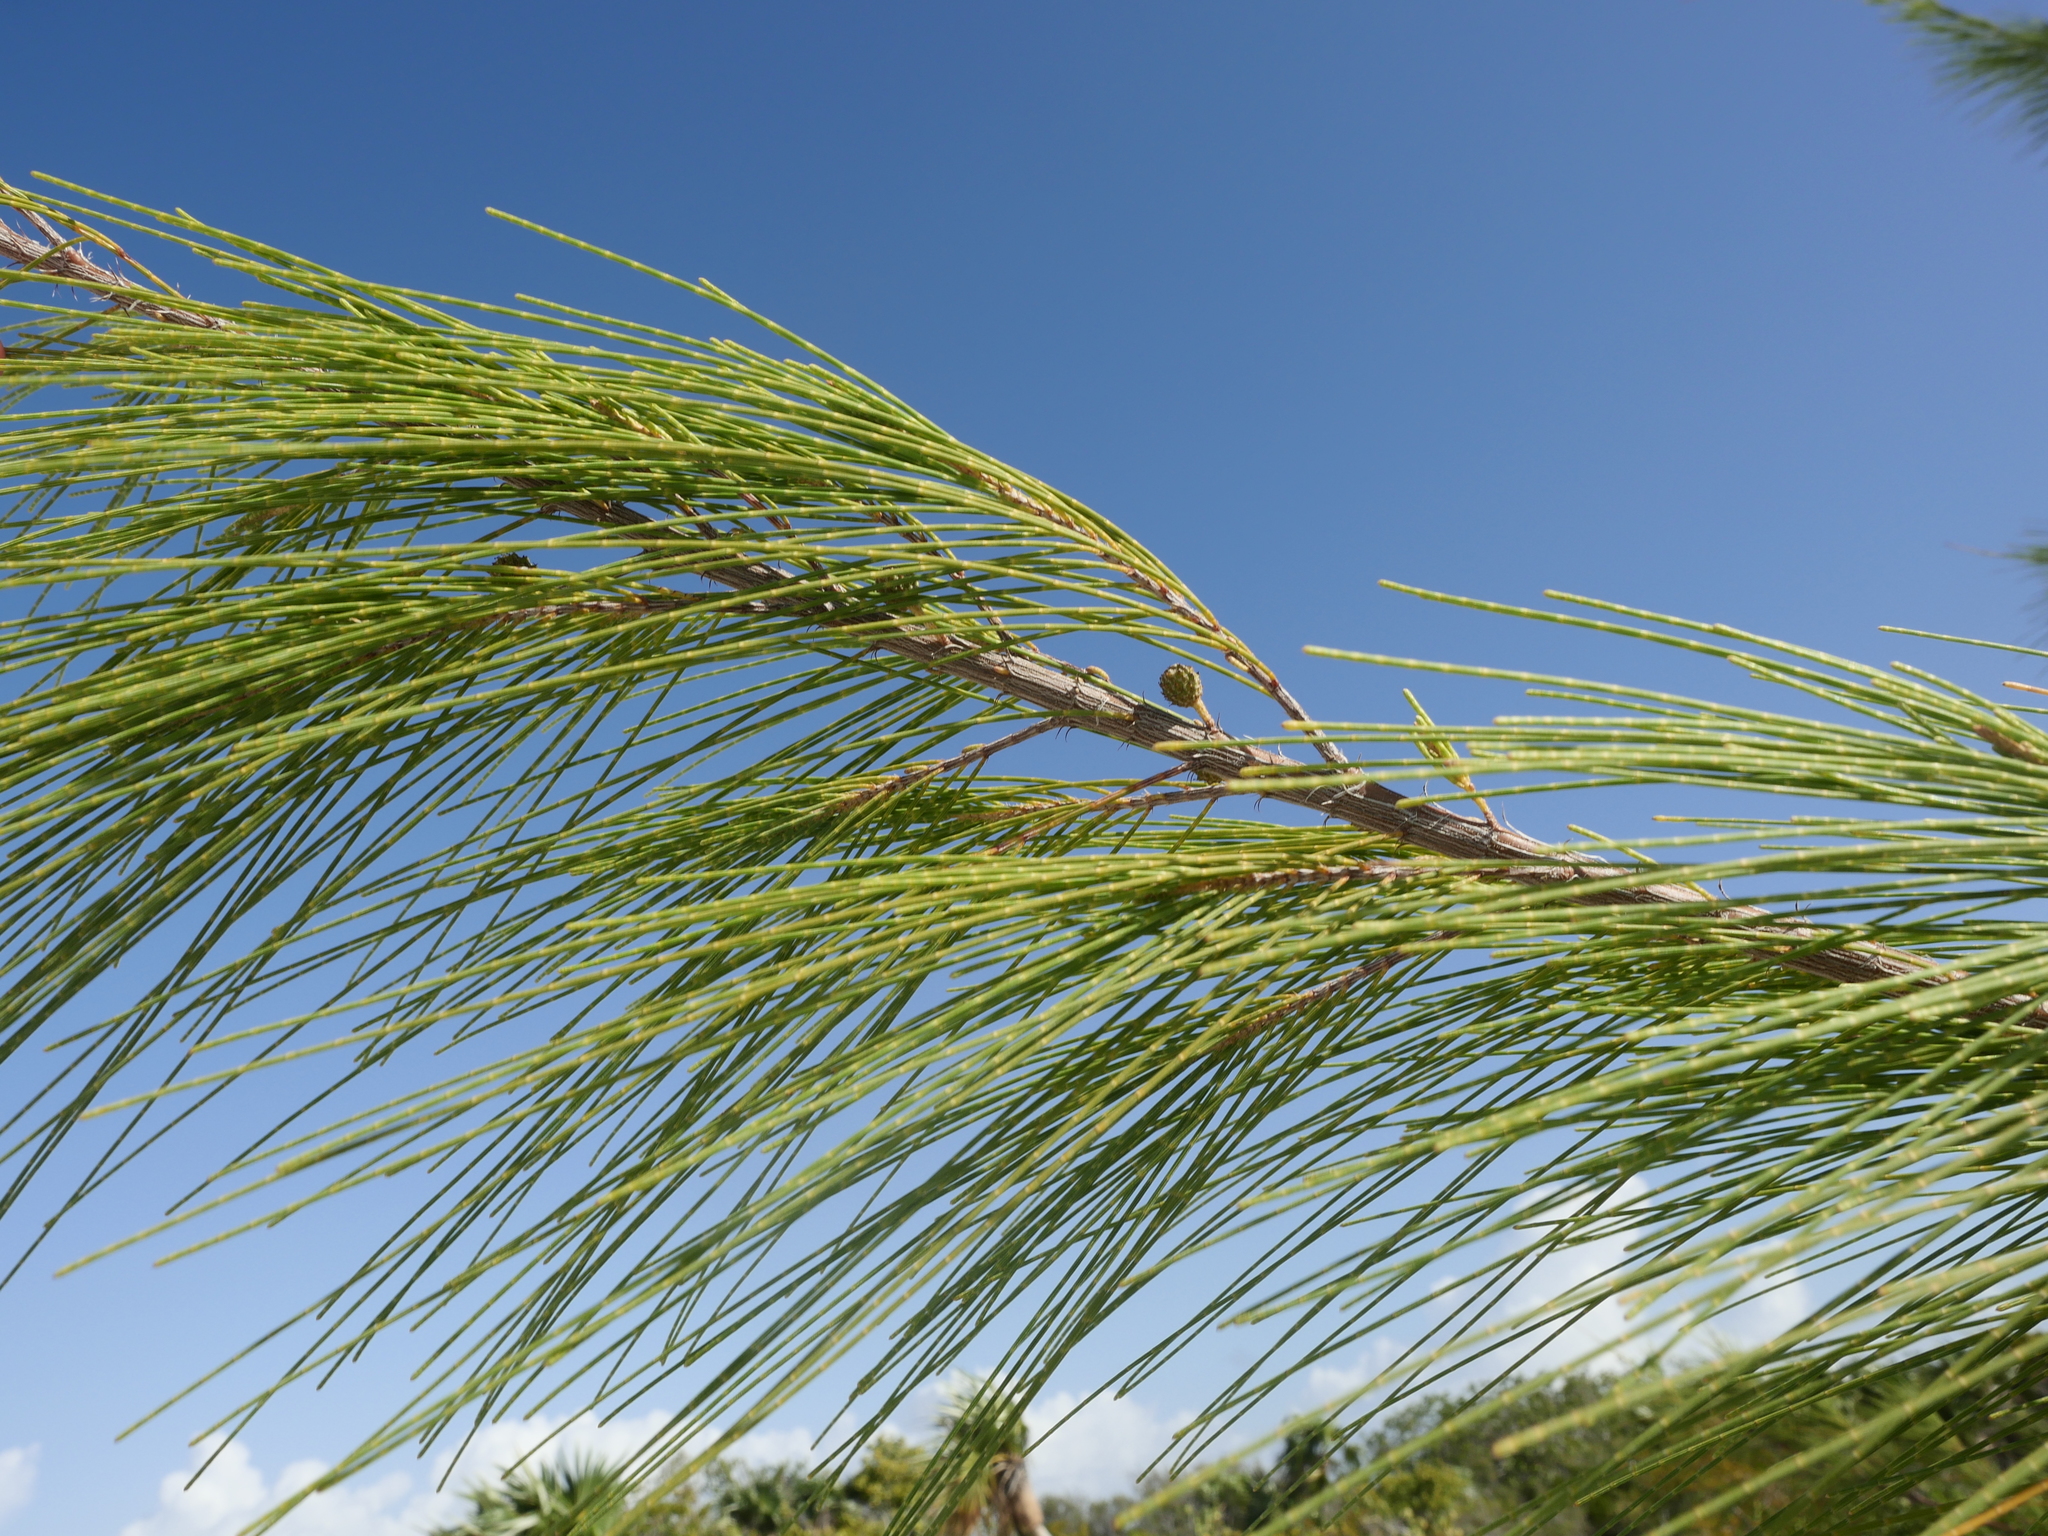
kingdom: Plantae
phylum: Tracheophyta
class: Magnoliopsida
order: Fagales
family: Casuarinaceae
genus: Casuarina
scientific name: Casuarina equisetifolia
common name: Beach sheoak
